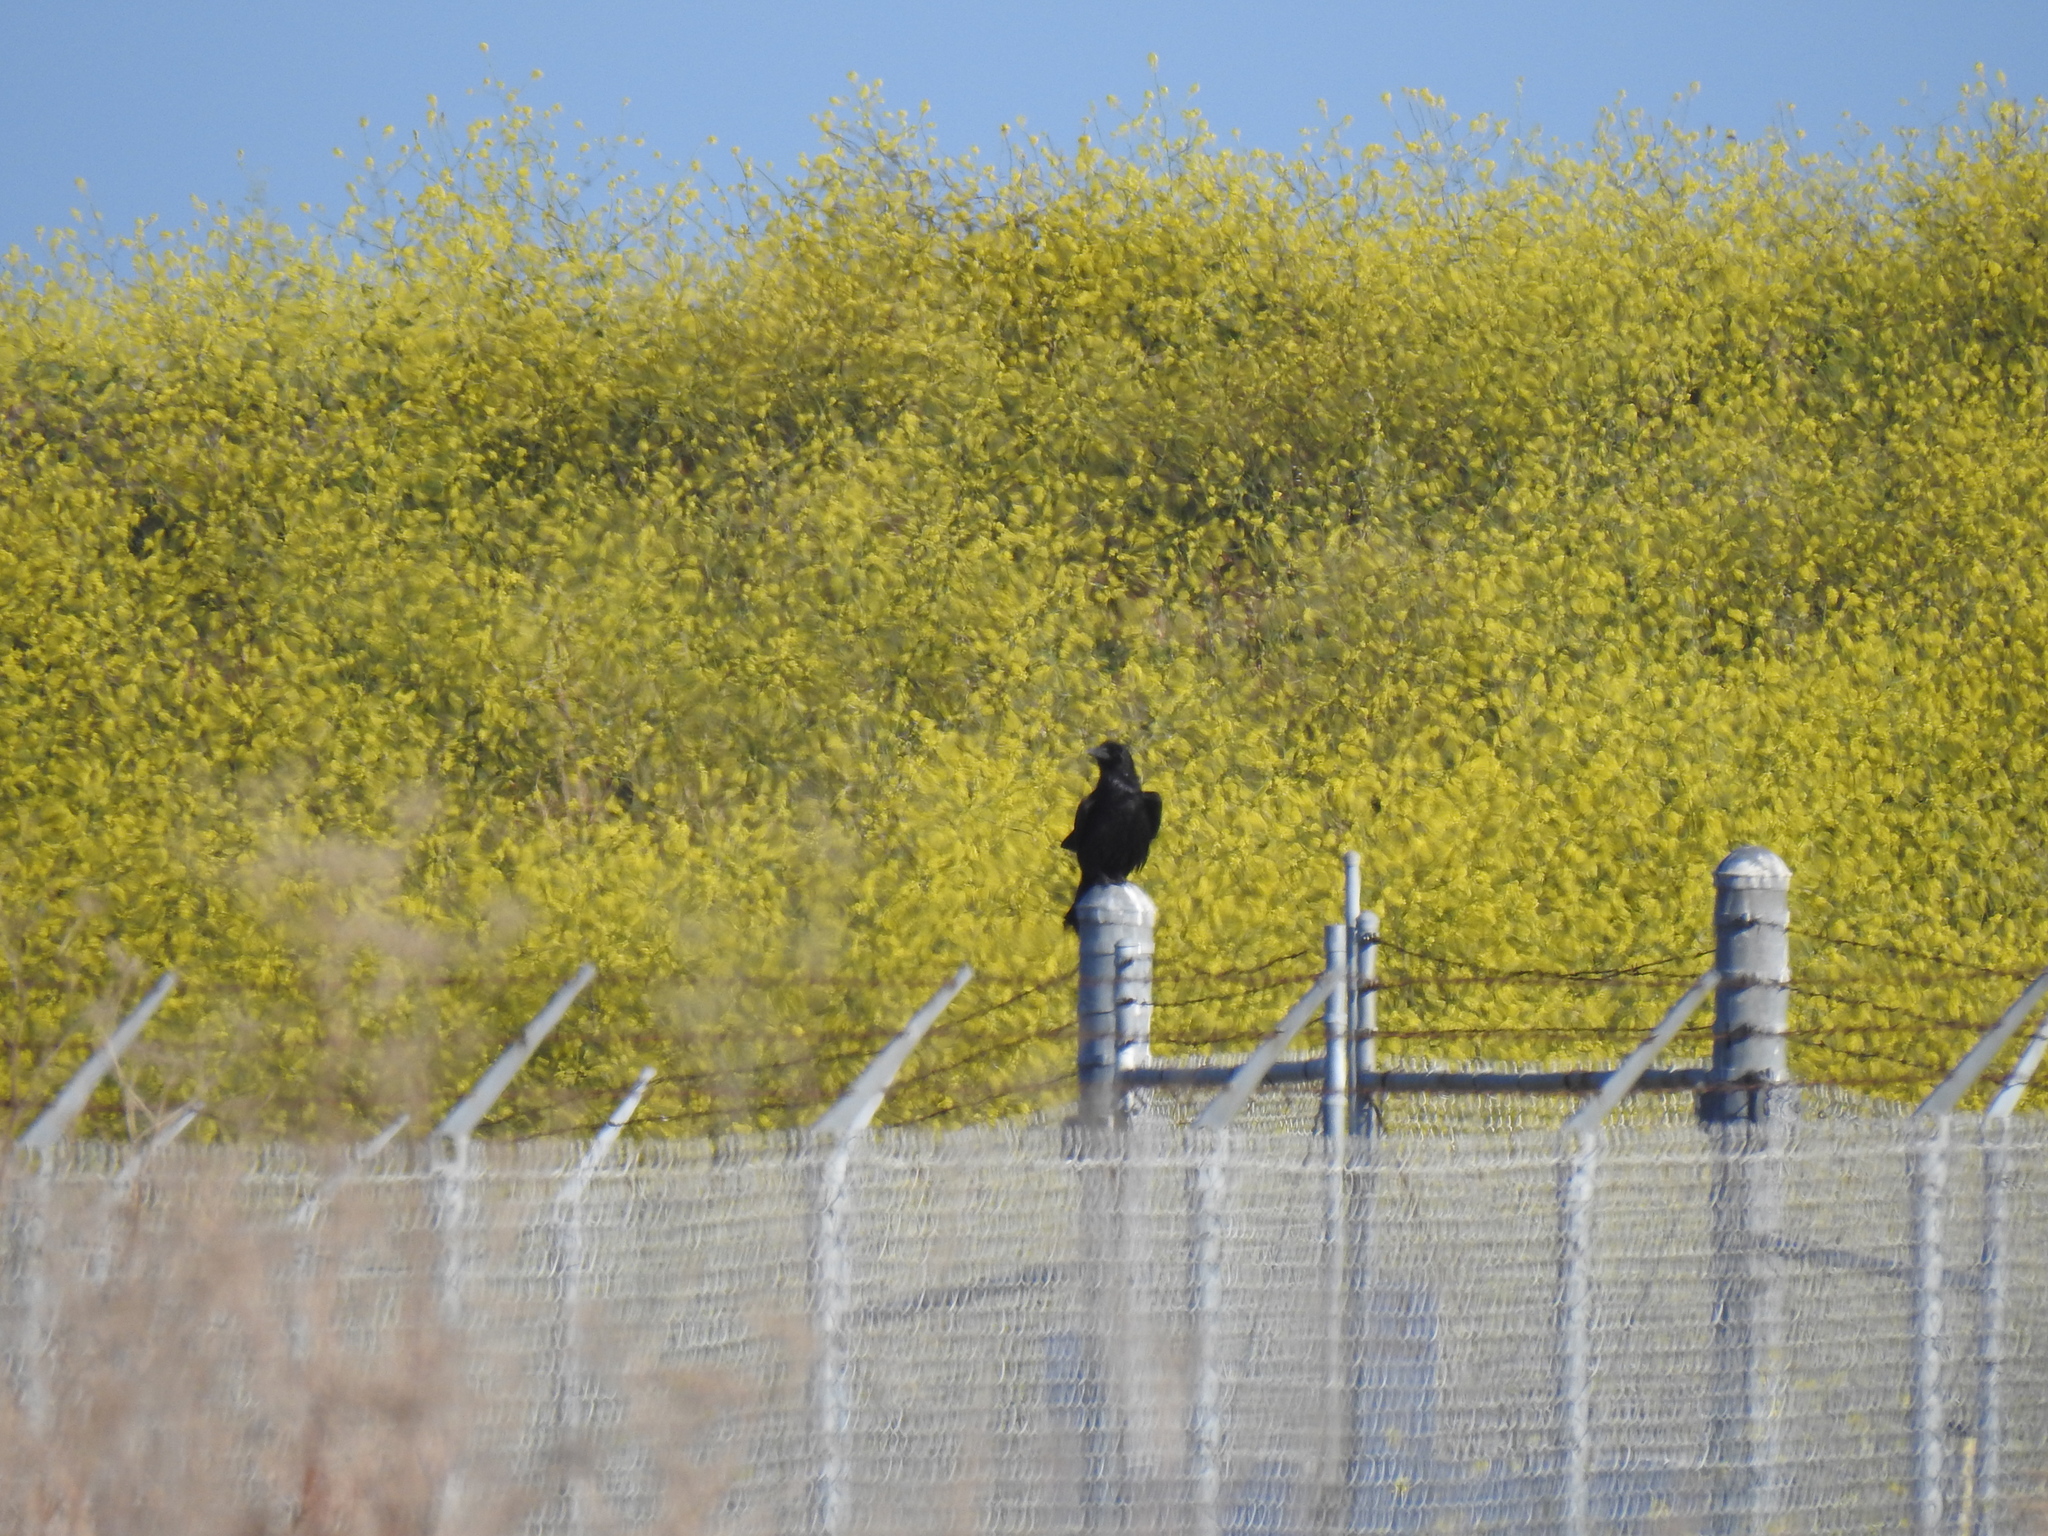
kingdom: Animalia
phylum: Chordata
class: Aves
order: Passeriformes
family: Corvidae
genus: Corvus
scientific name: Corvus corax
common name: Common raven
